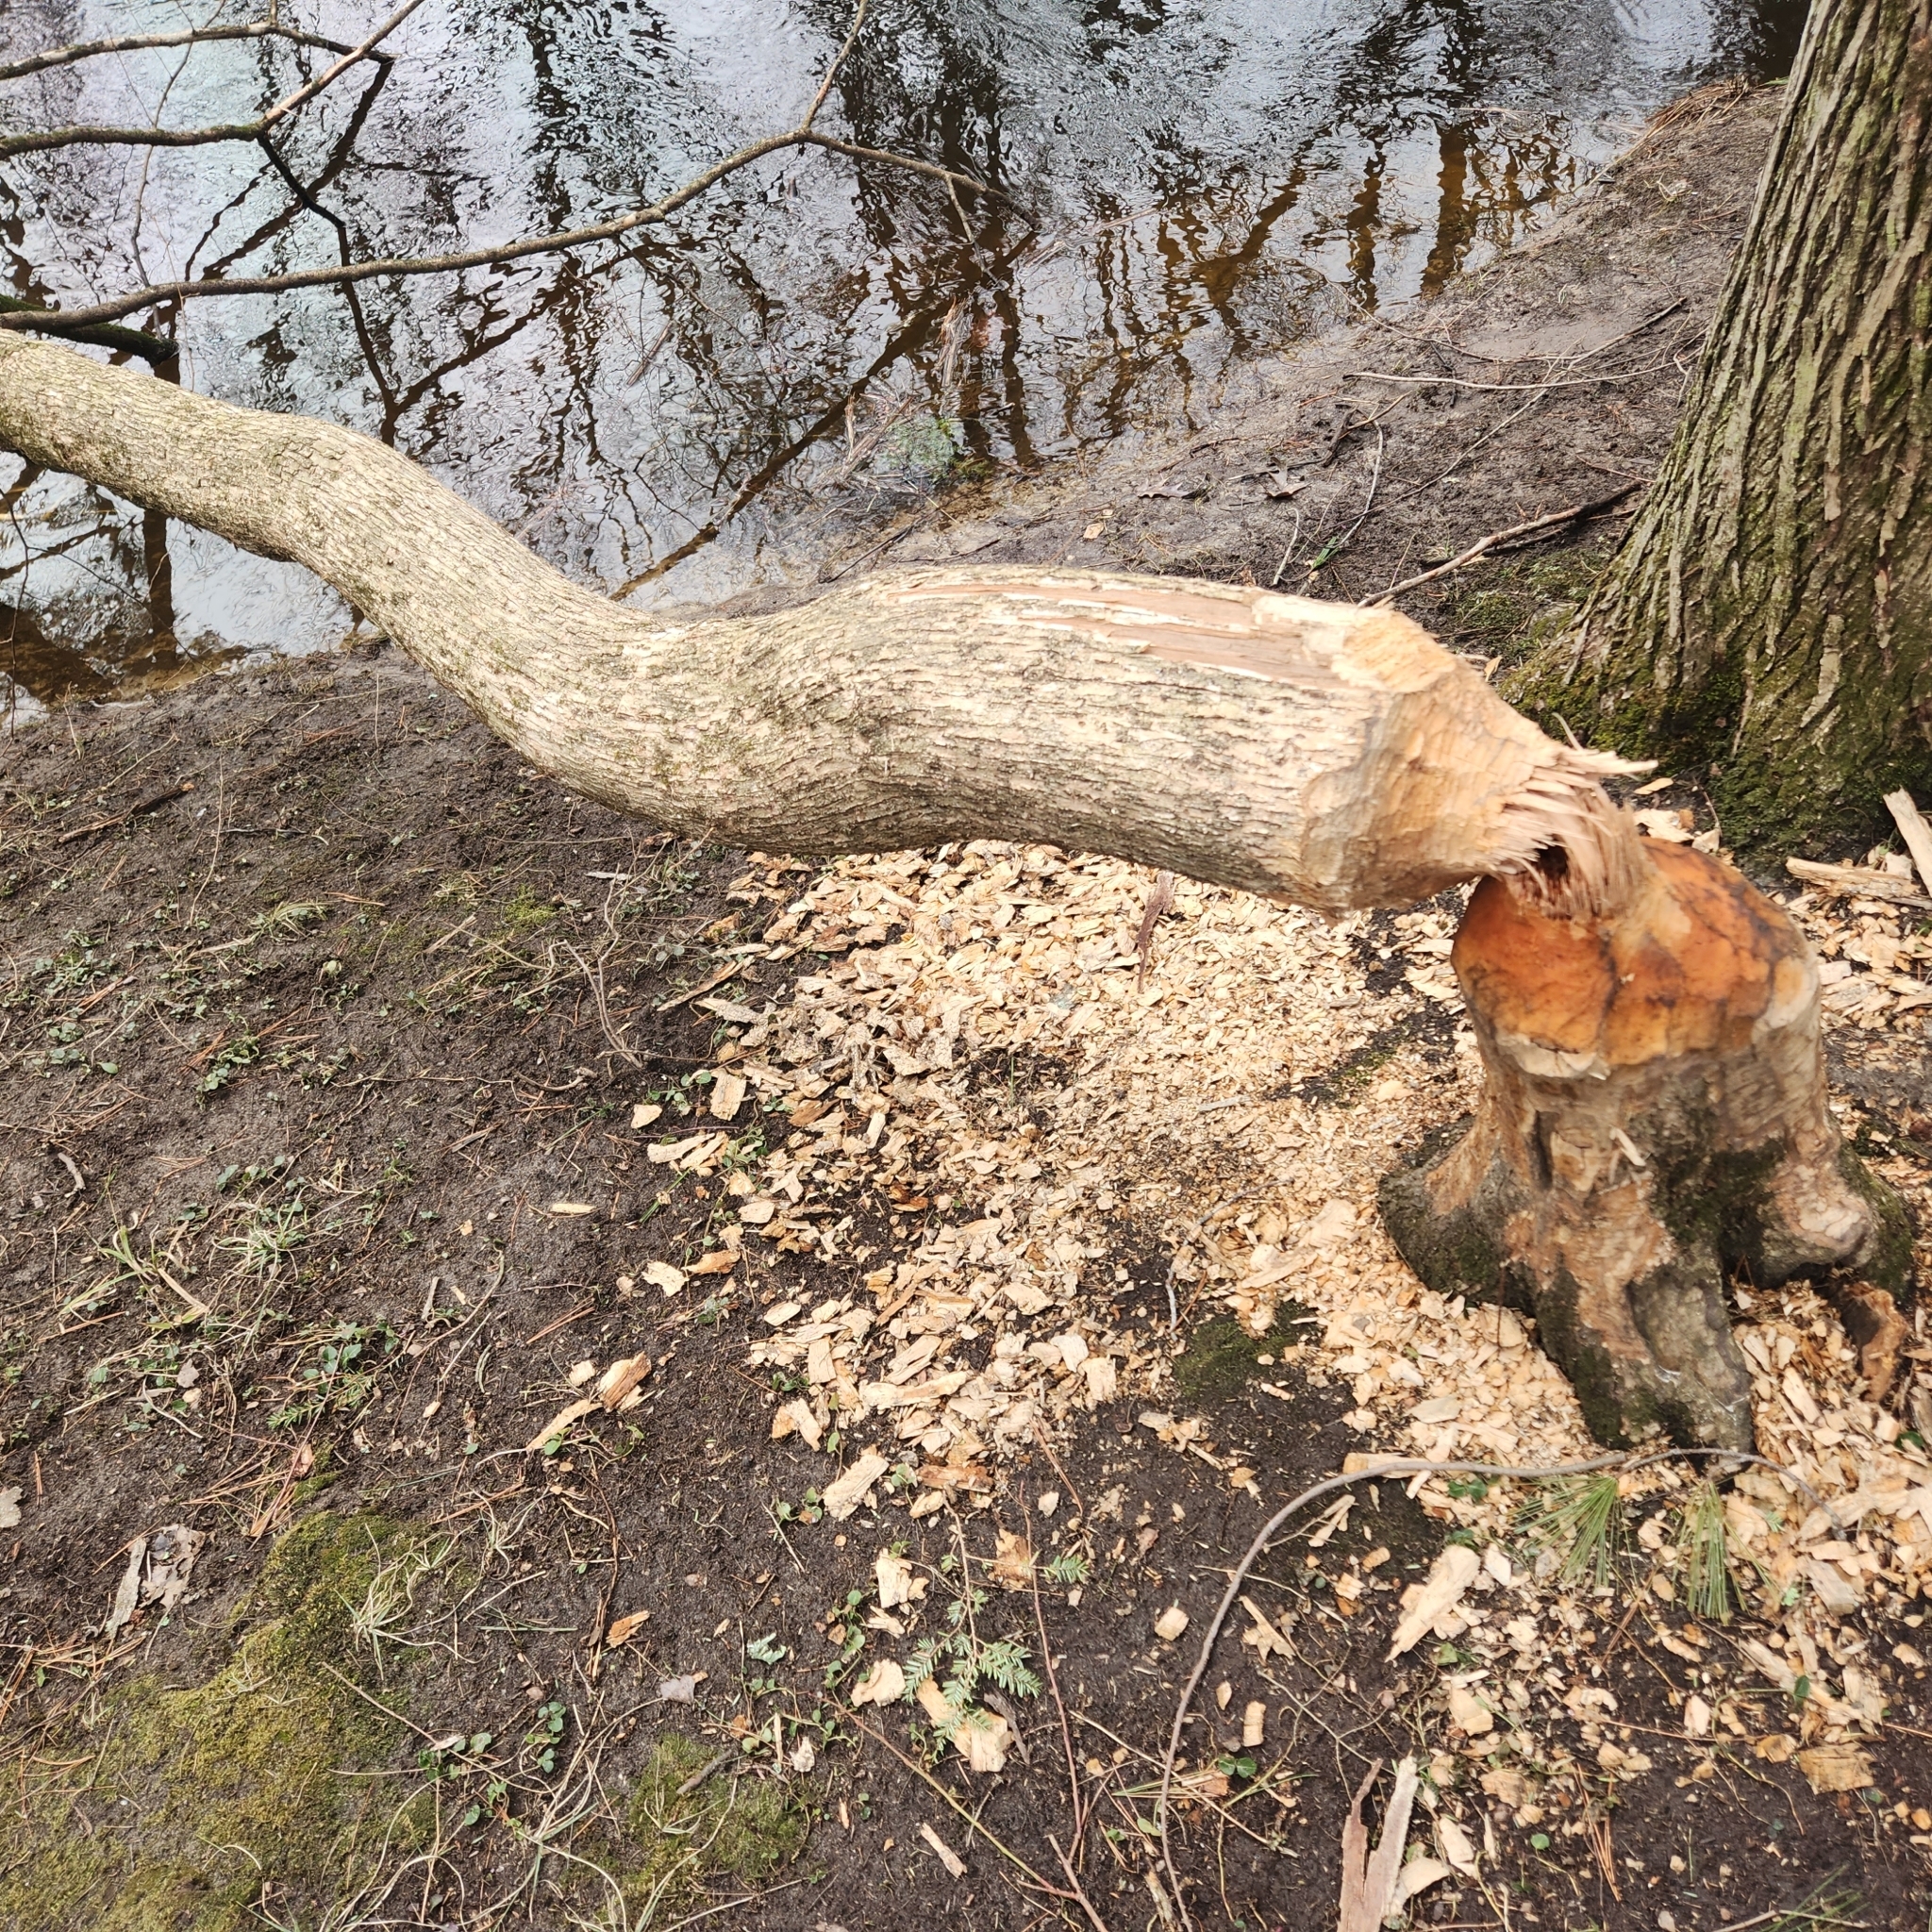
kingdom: Animalia
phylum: Chordata
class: Mammalia
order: Rodentia
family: Castoridae
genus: Castor
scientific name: Castor canadensis
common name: American beaver
